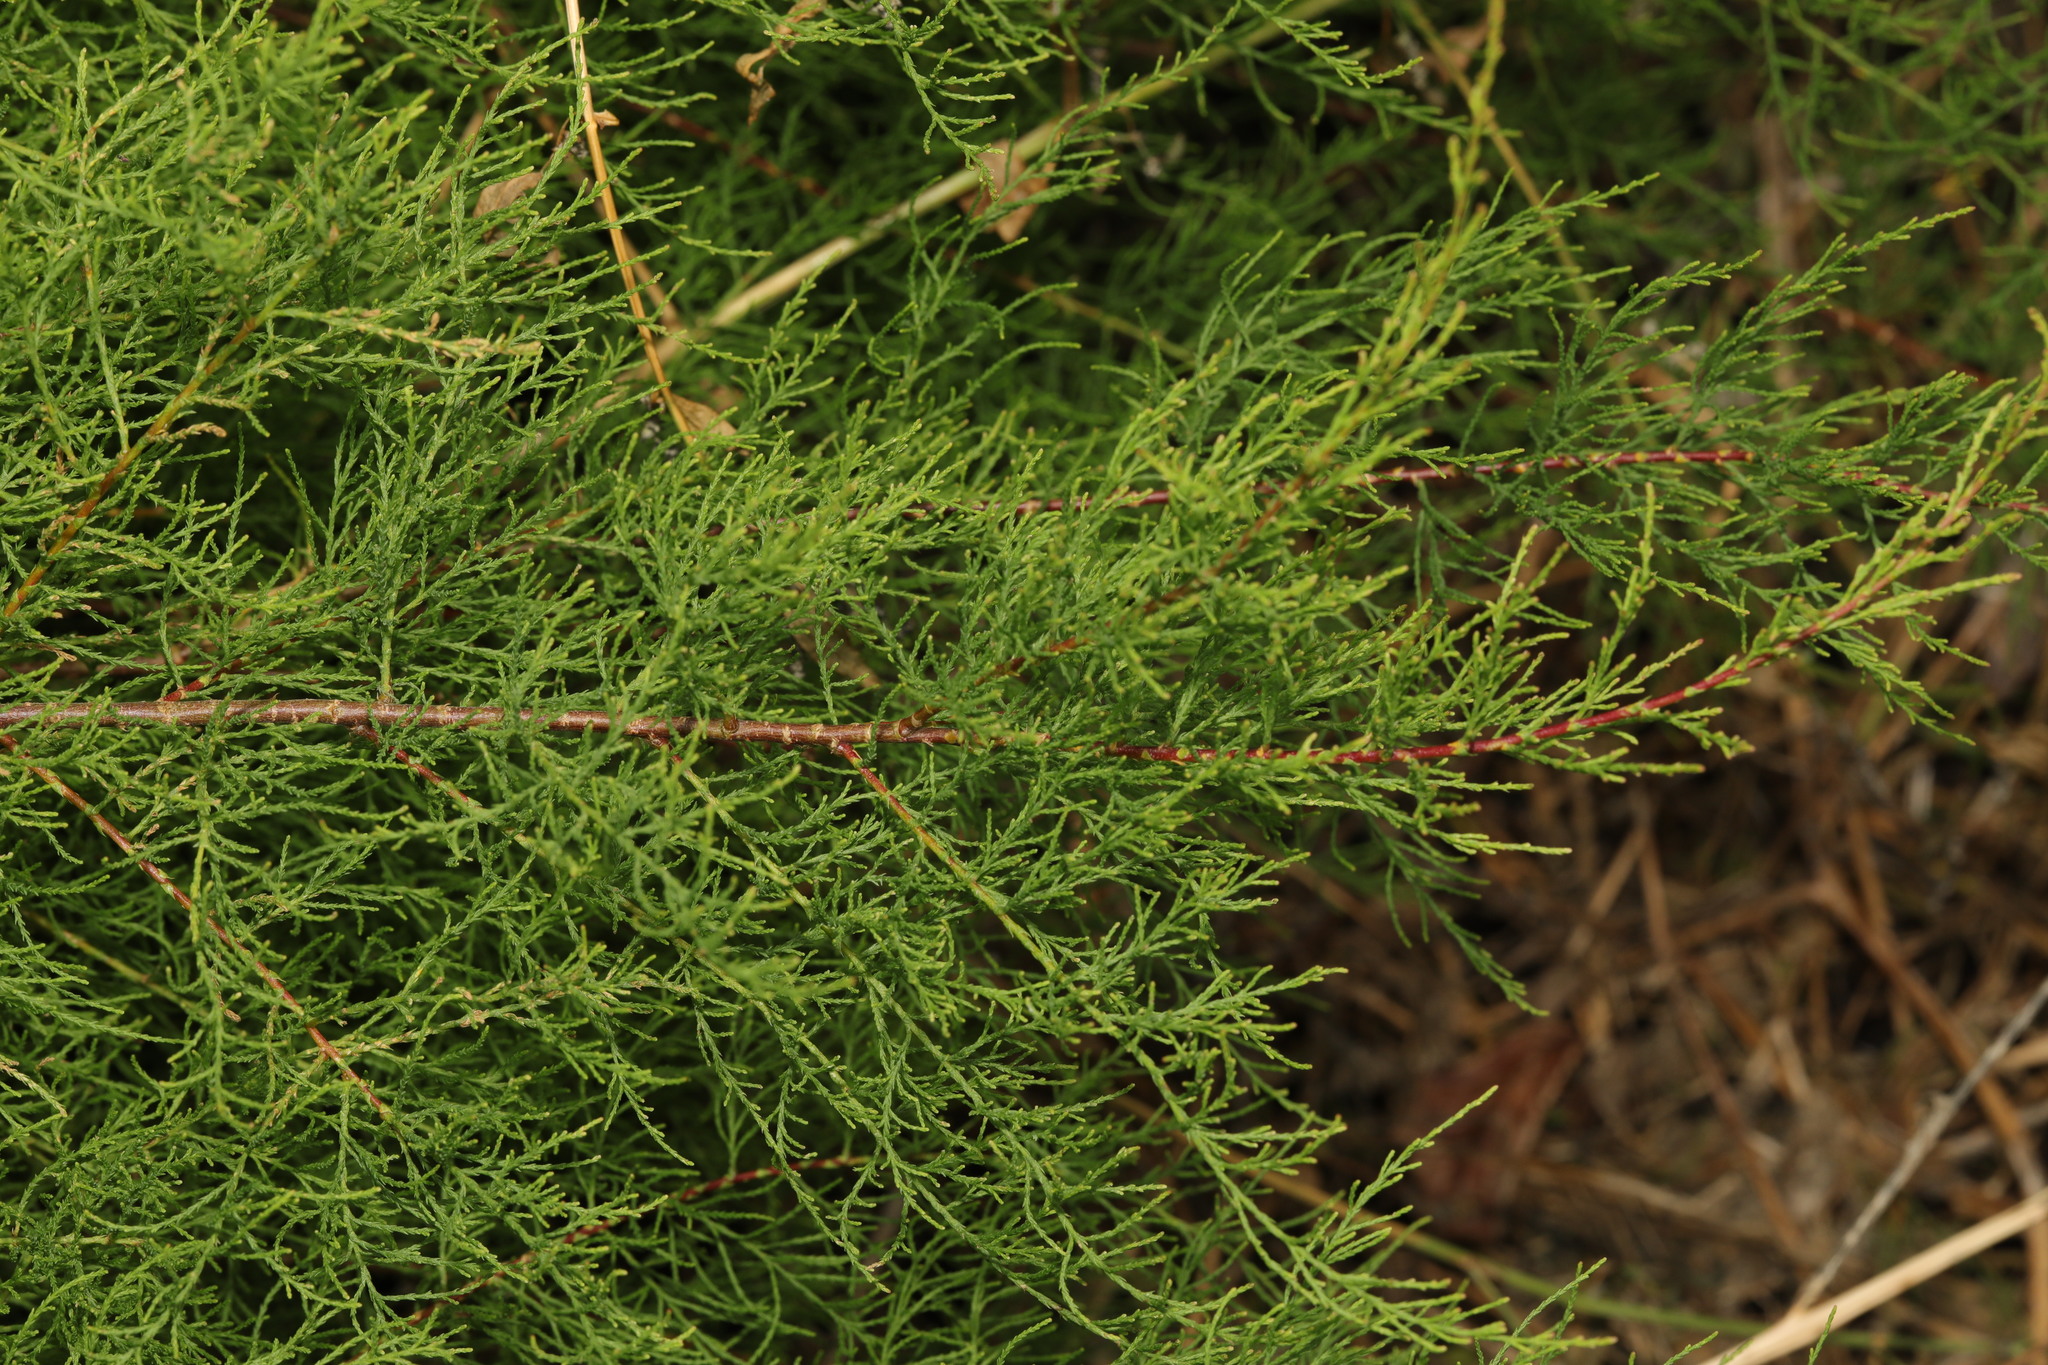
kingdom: Plantae
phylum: Tracheophyta
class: Magnoliopsida
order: Caryophyllales
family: Tamaricaceae
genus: Tamarix
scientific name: Tamarix gallica
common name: Tamarisk
